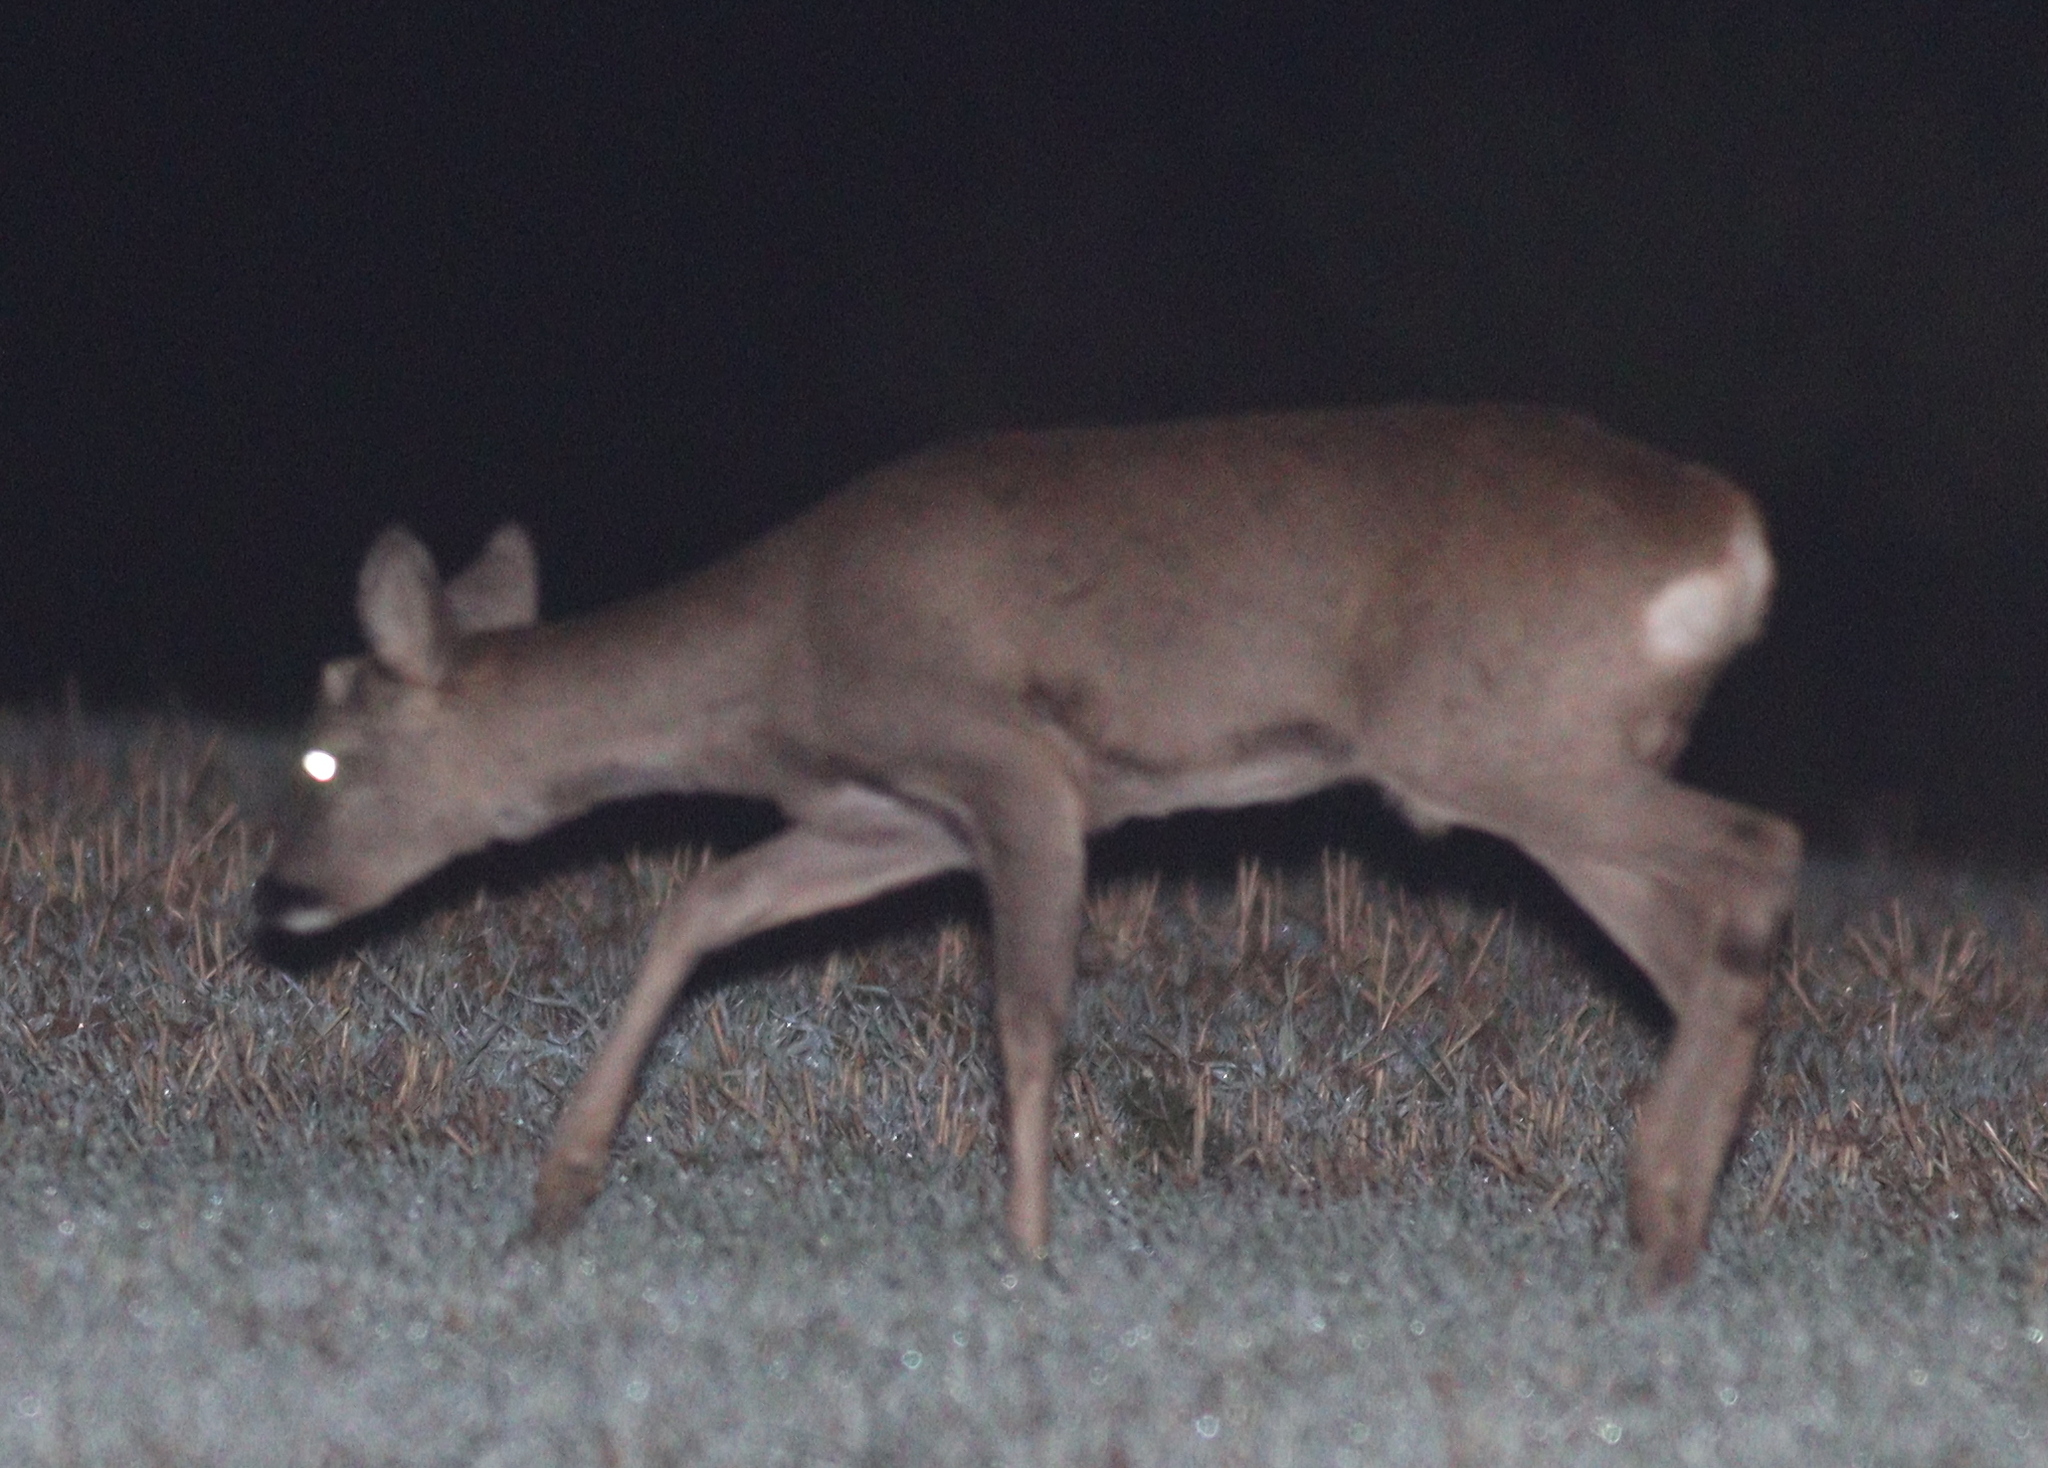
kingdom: Animalia
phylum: Chordata
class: Mammalia
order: Artiodactyla
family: Cervidae
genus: Capreolus
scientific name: Capreolus capreolus
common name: Western roe deer
